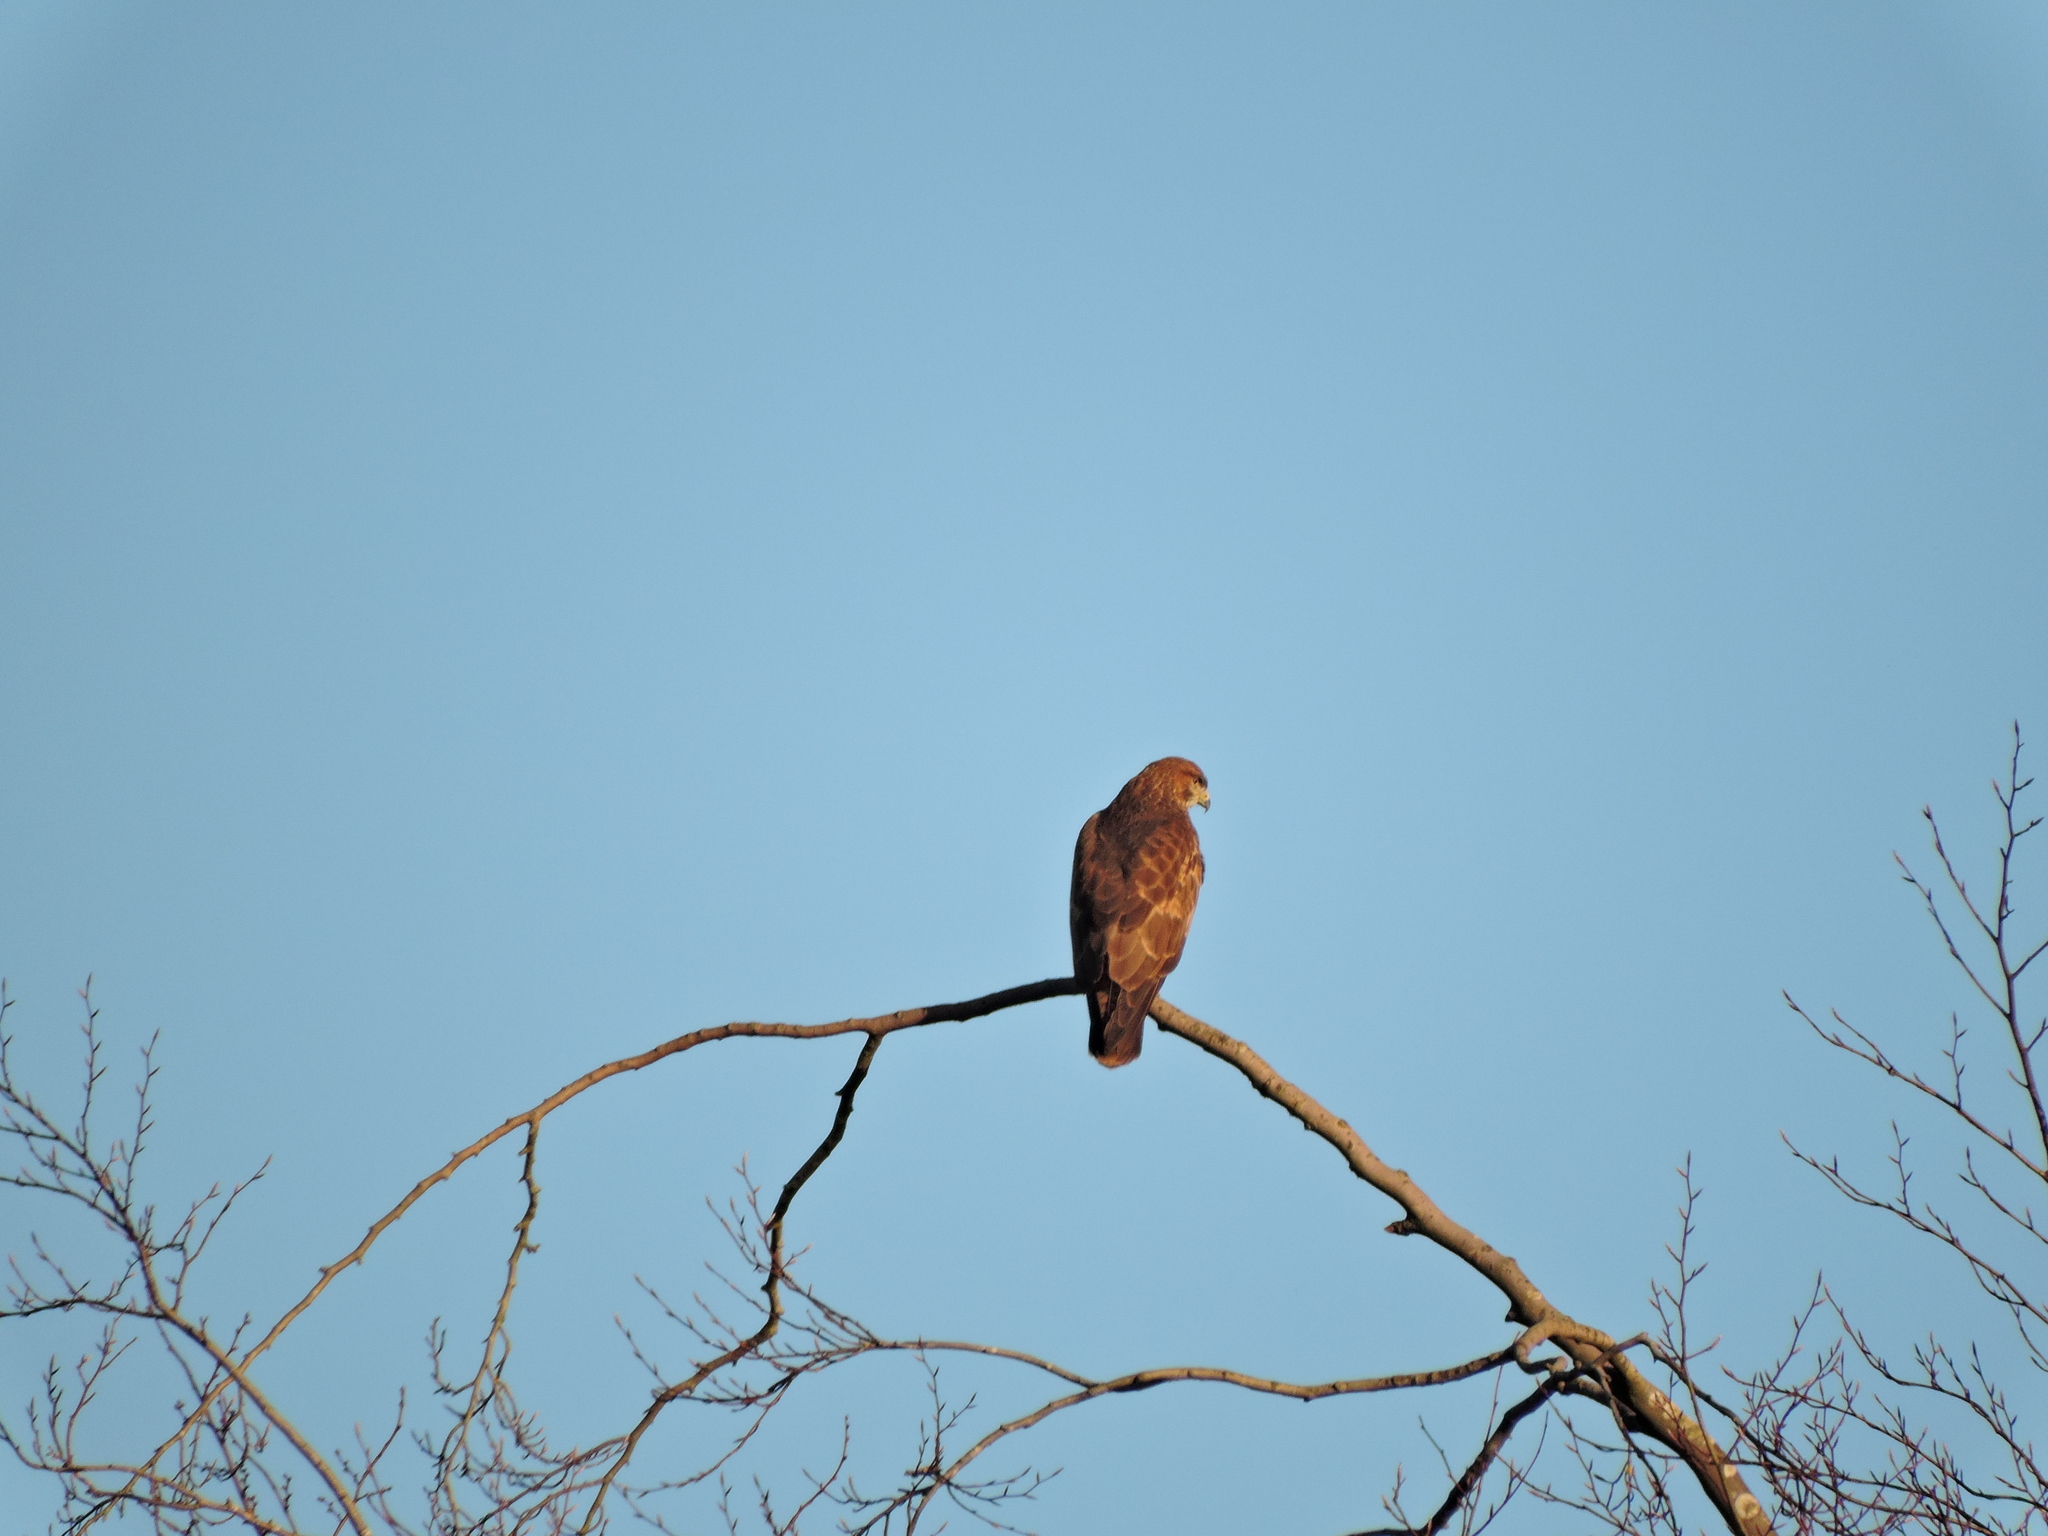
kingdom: Animalia
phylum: Chordata
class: Aves
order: Accipitriformes
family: Accipitridae
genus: Buteo
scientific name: Buteo buteo
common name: Common buzzard
